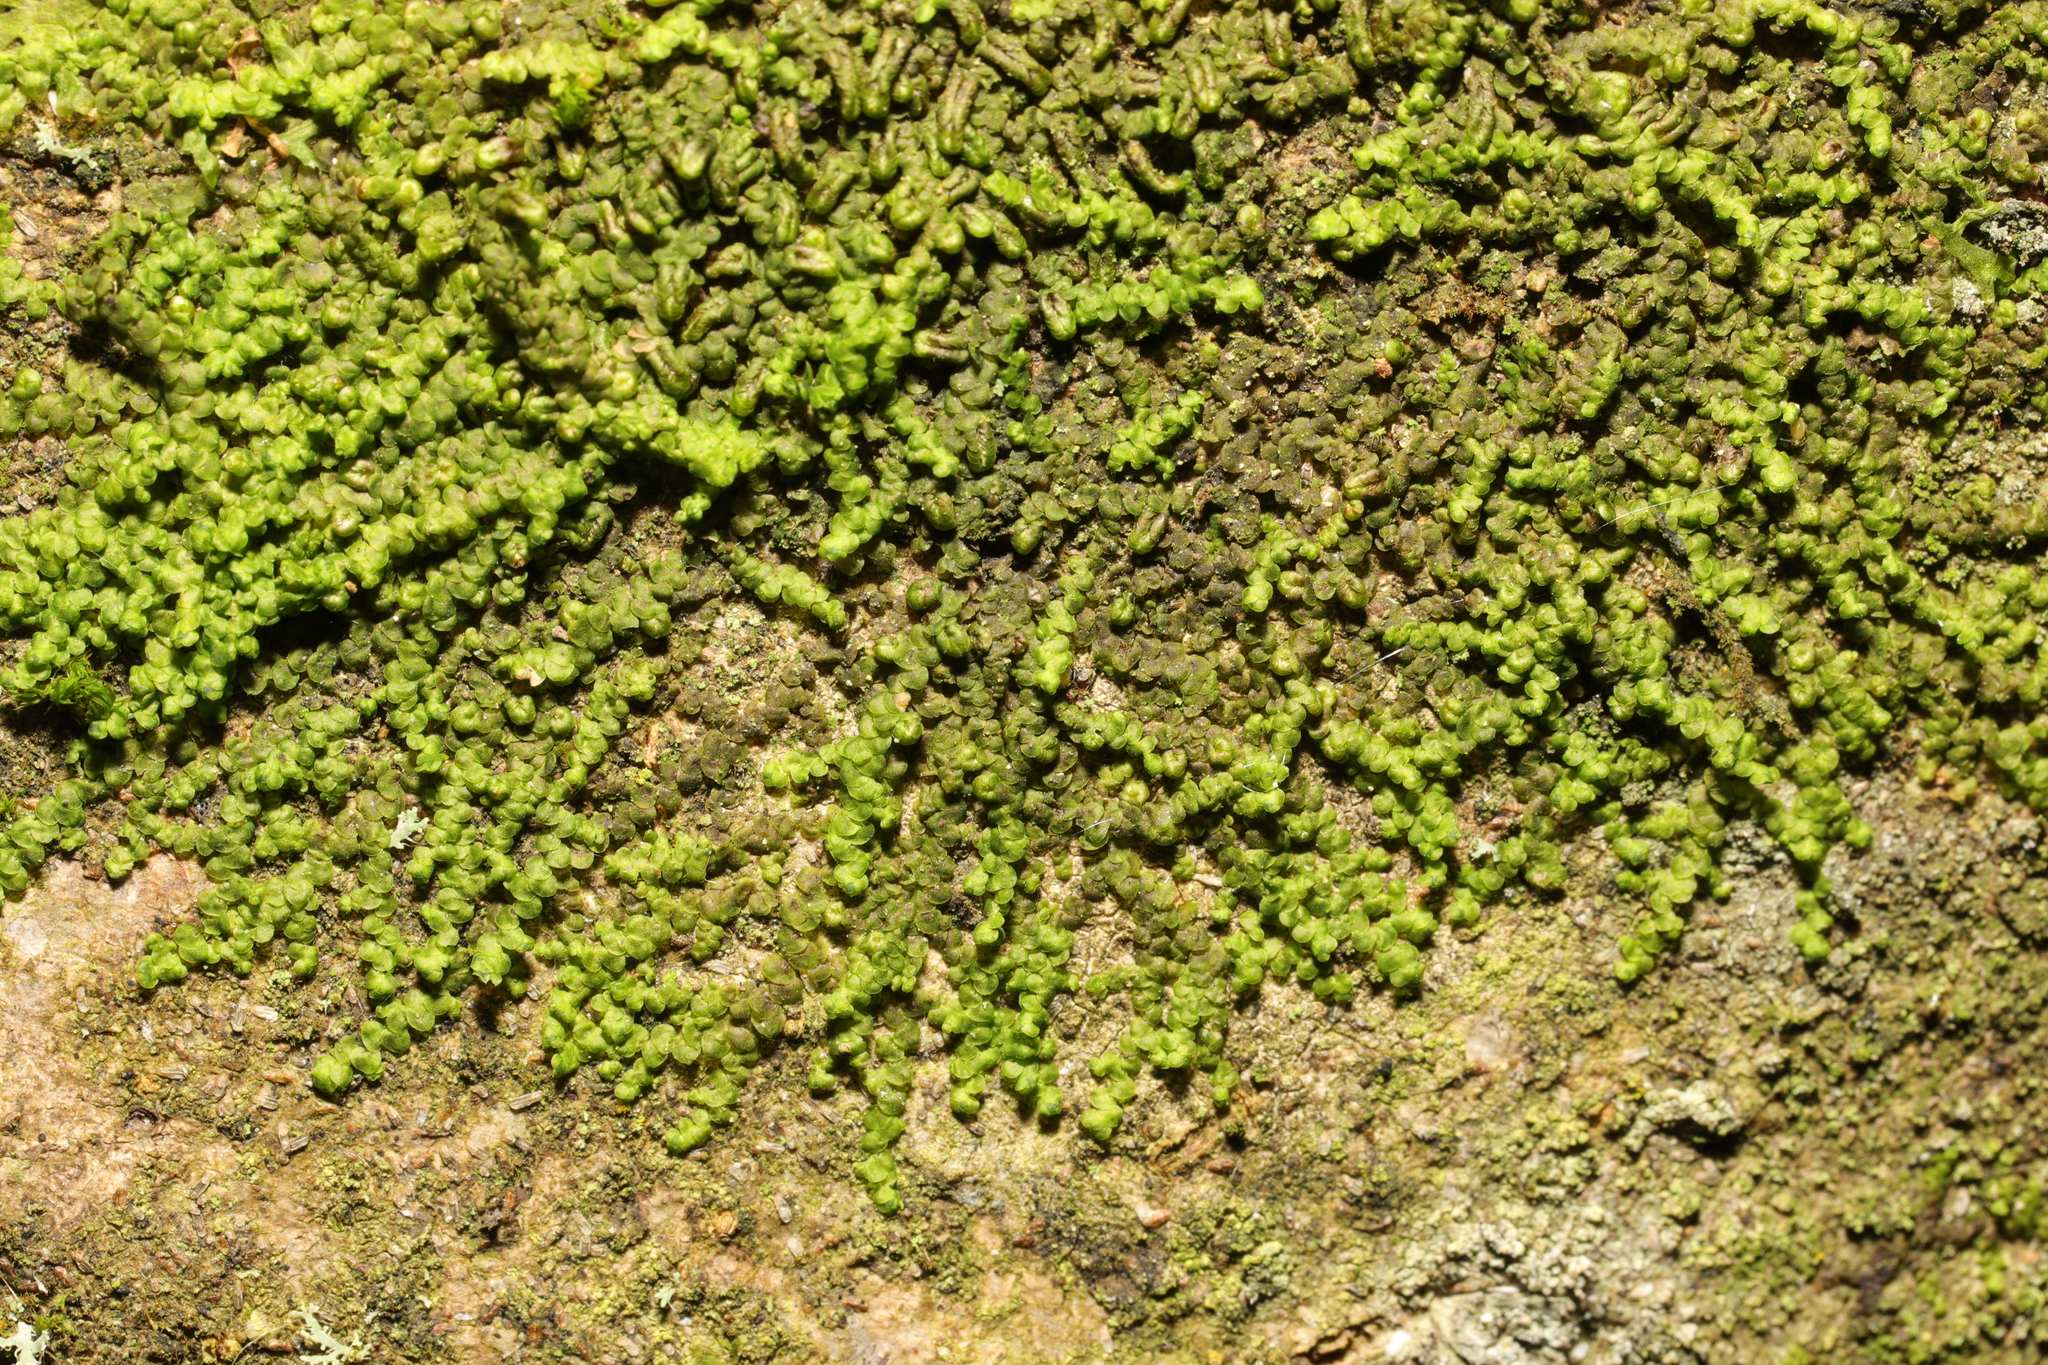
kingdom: Plantae
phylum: Marchantiophyta
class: Jungermanniopsida
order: Porellales
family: Frullaniaceae
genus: Frullania
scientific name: Frullania dilatata
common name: Dilated scalewort
